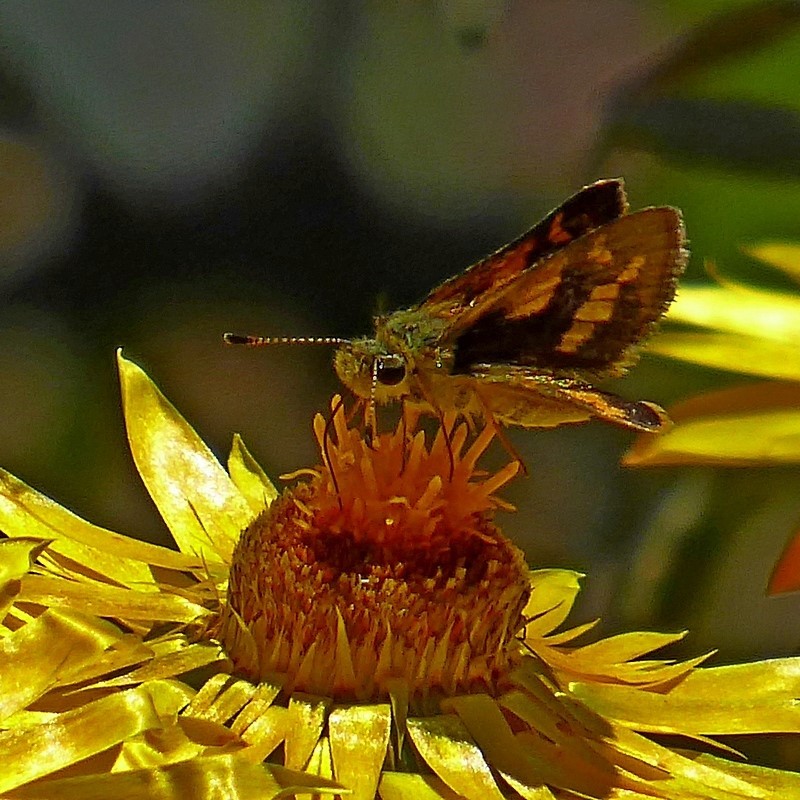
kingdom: Animalia
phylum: Arthropoda
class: Insecta
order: Lepidoptera
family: Hesperiidae
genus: Ocybadistes
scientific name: Ocybadistes flavovittata
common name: Narrow-brand grass-dart
